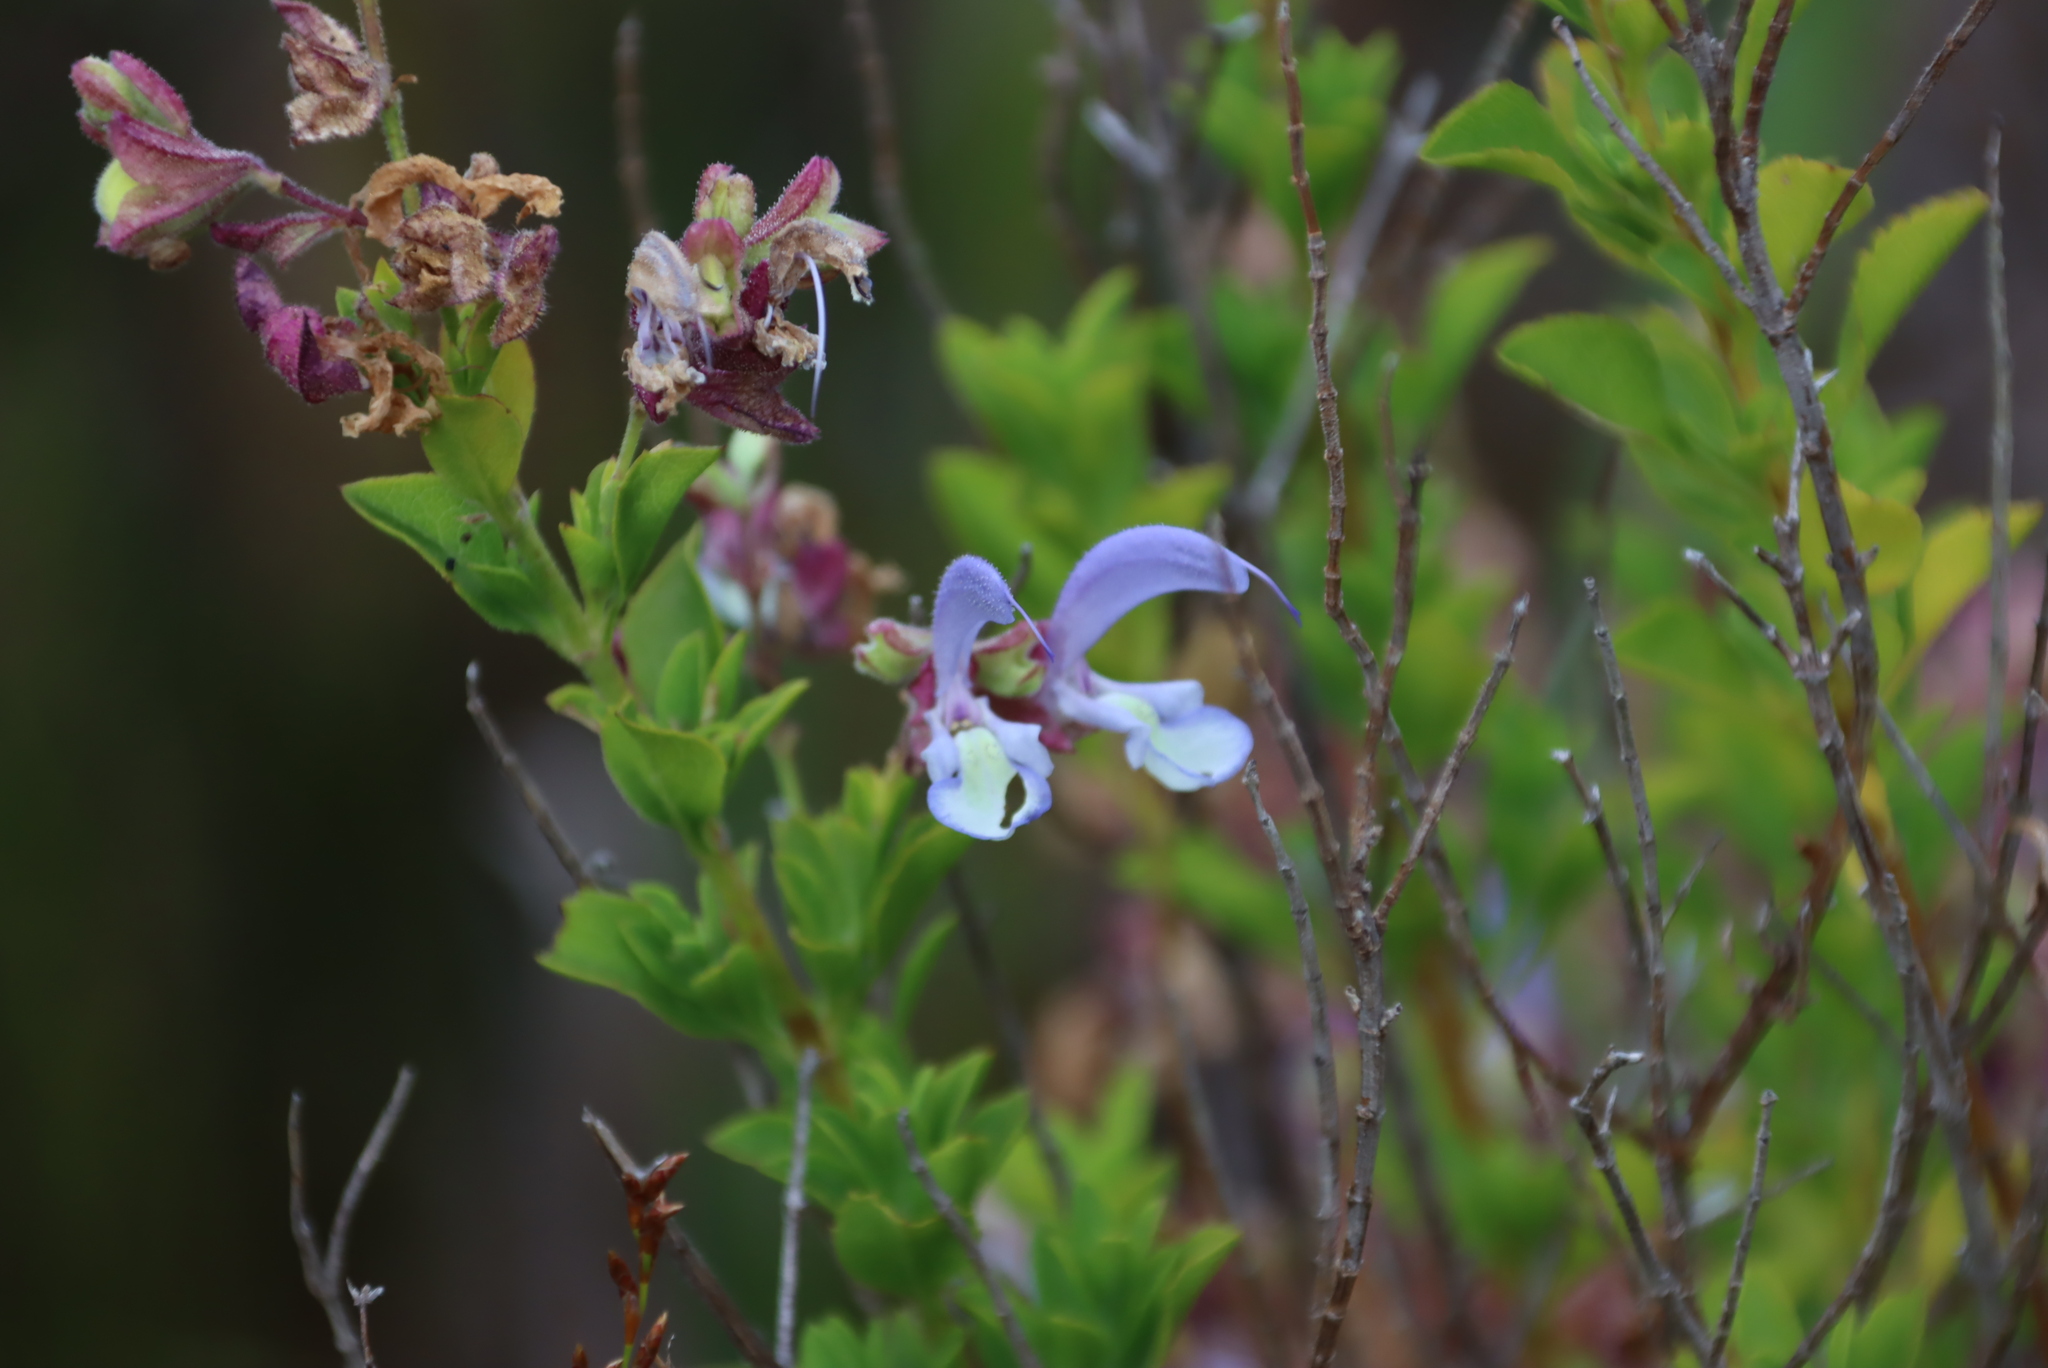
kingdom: Plantae
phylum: Tracheophyta
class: Magnoliopsida
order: Lamiales
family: Lamiaceae
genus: Salvia
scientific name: Salvia chamelaeagnea
